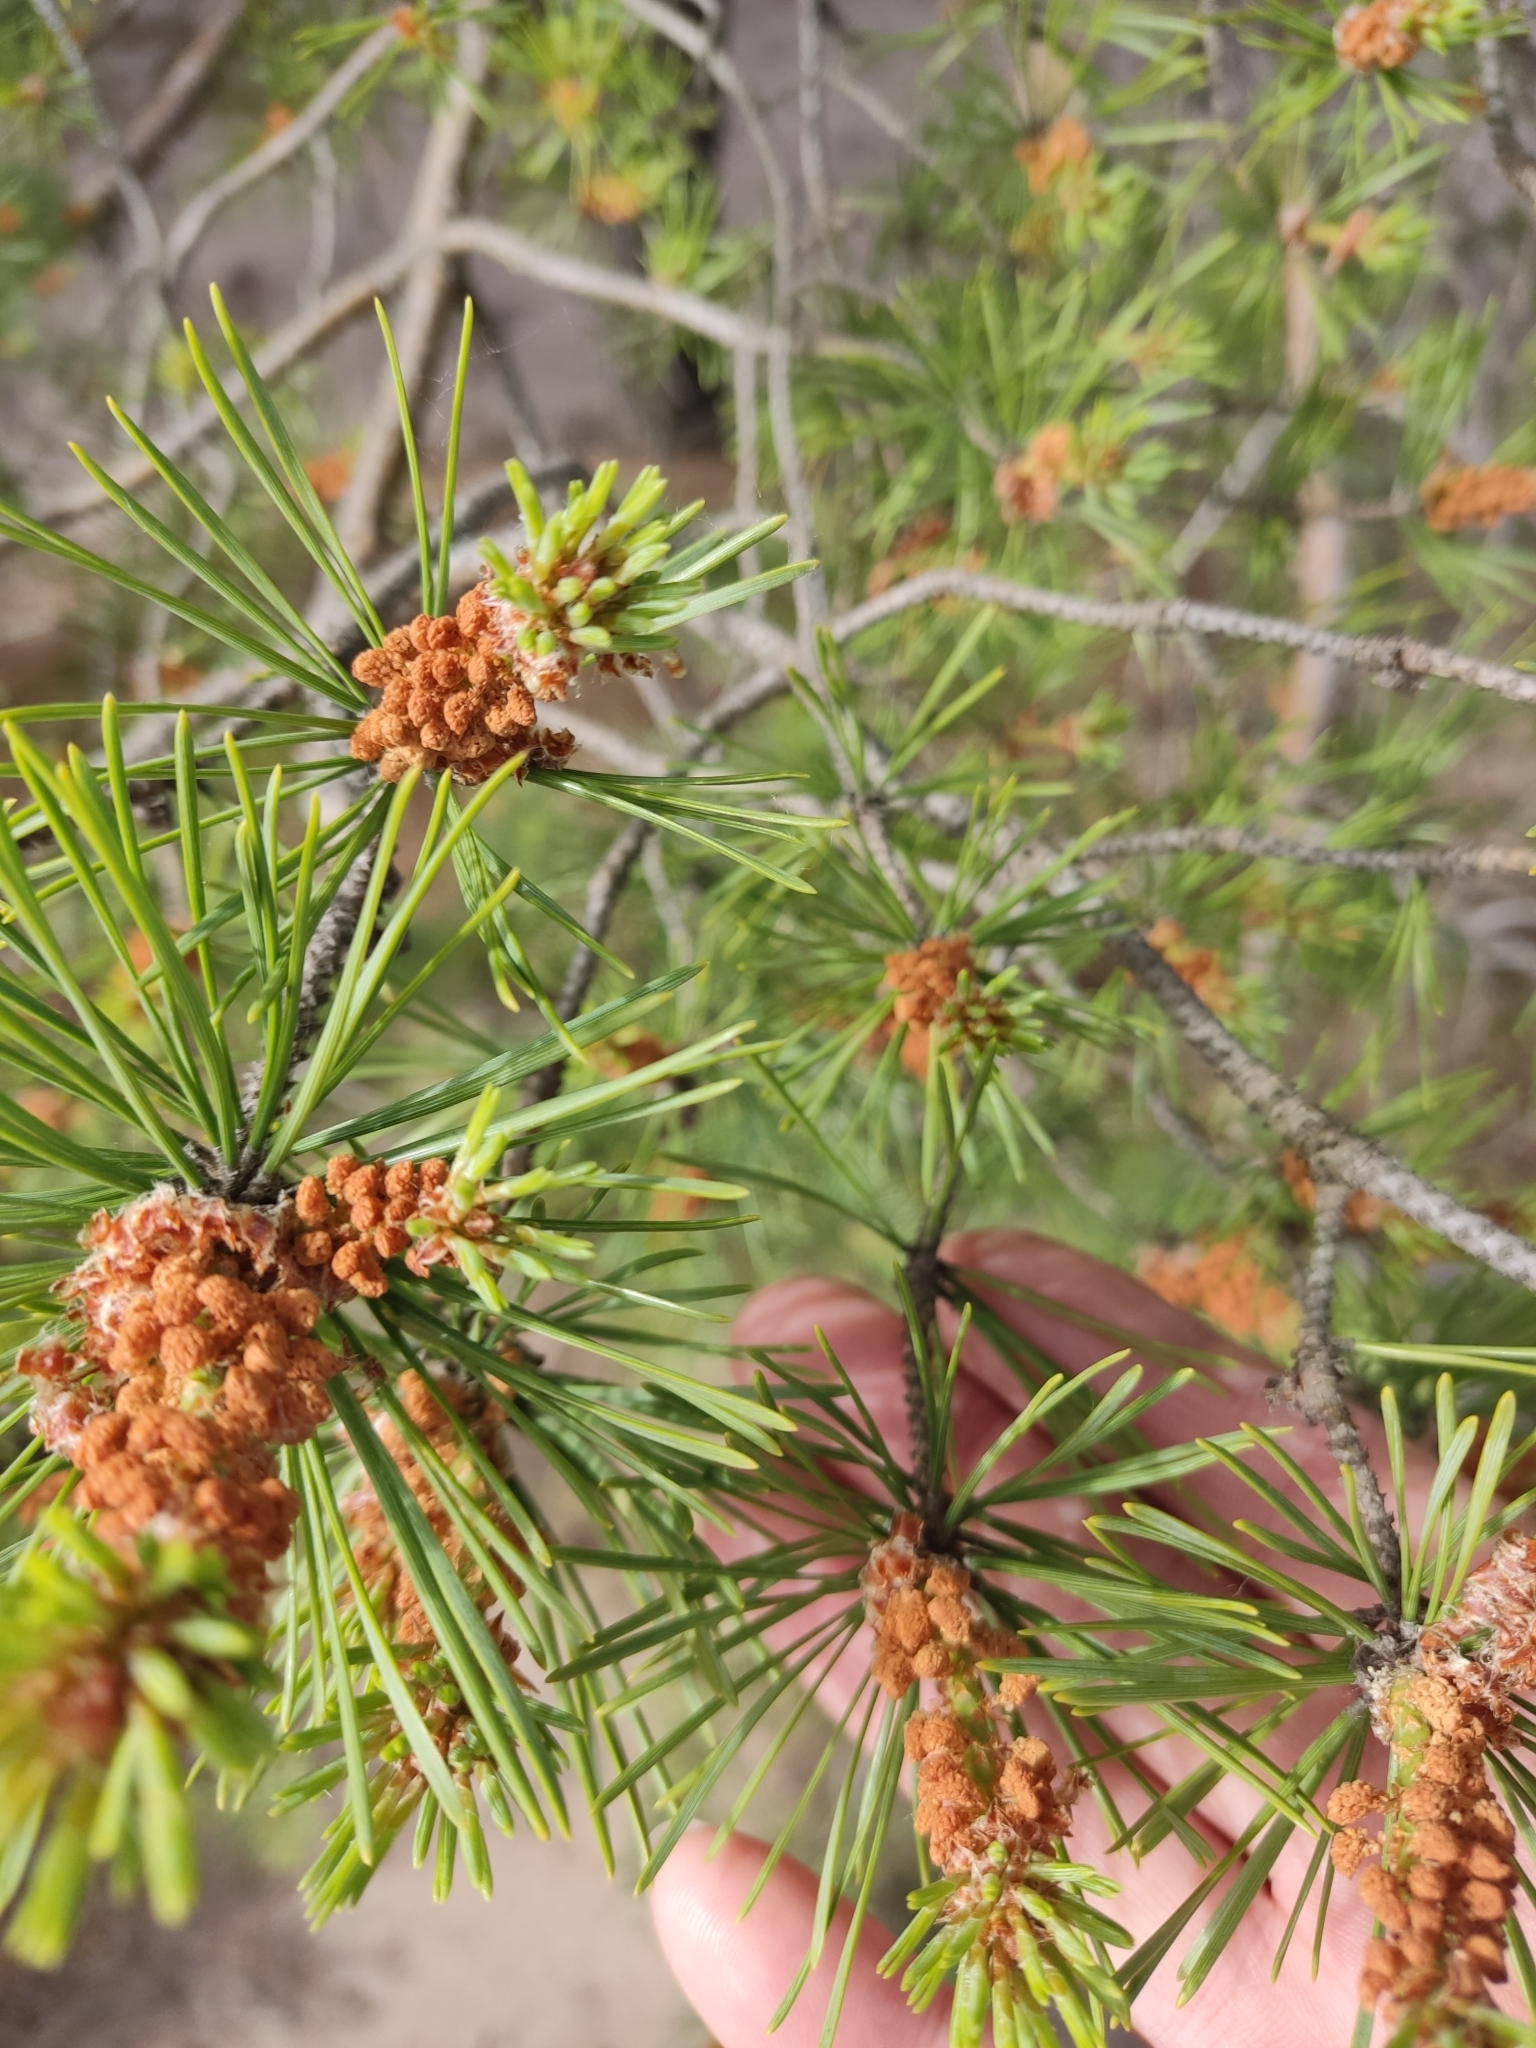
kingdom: Plantae
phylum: Tracheophyta
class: Pinopsida
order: Pinales
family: Pinaceae
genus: Pinus
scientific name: Pinus sylvestris
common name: Scots pine
